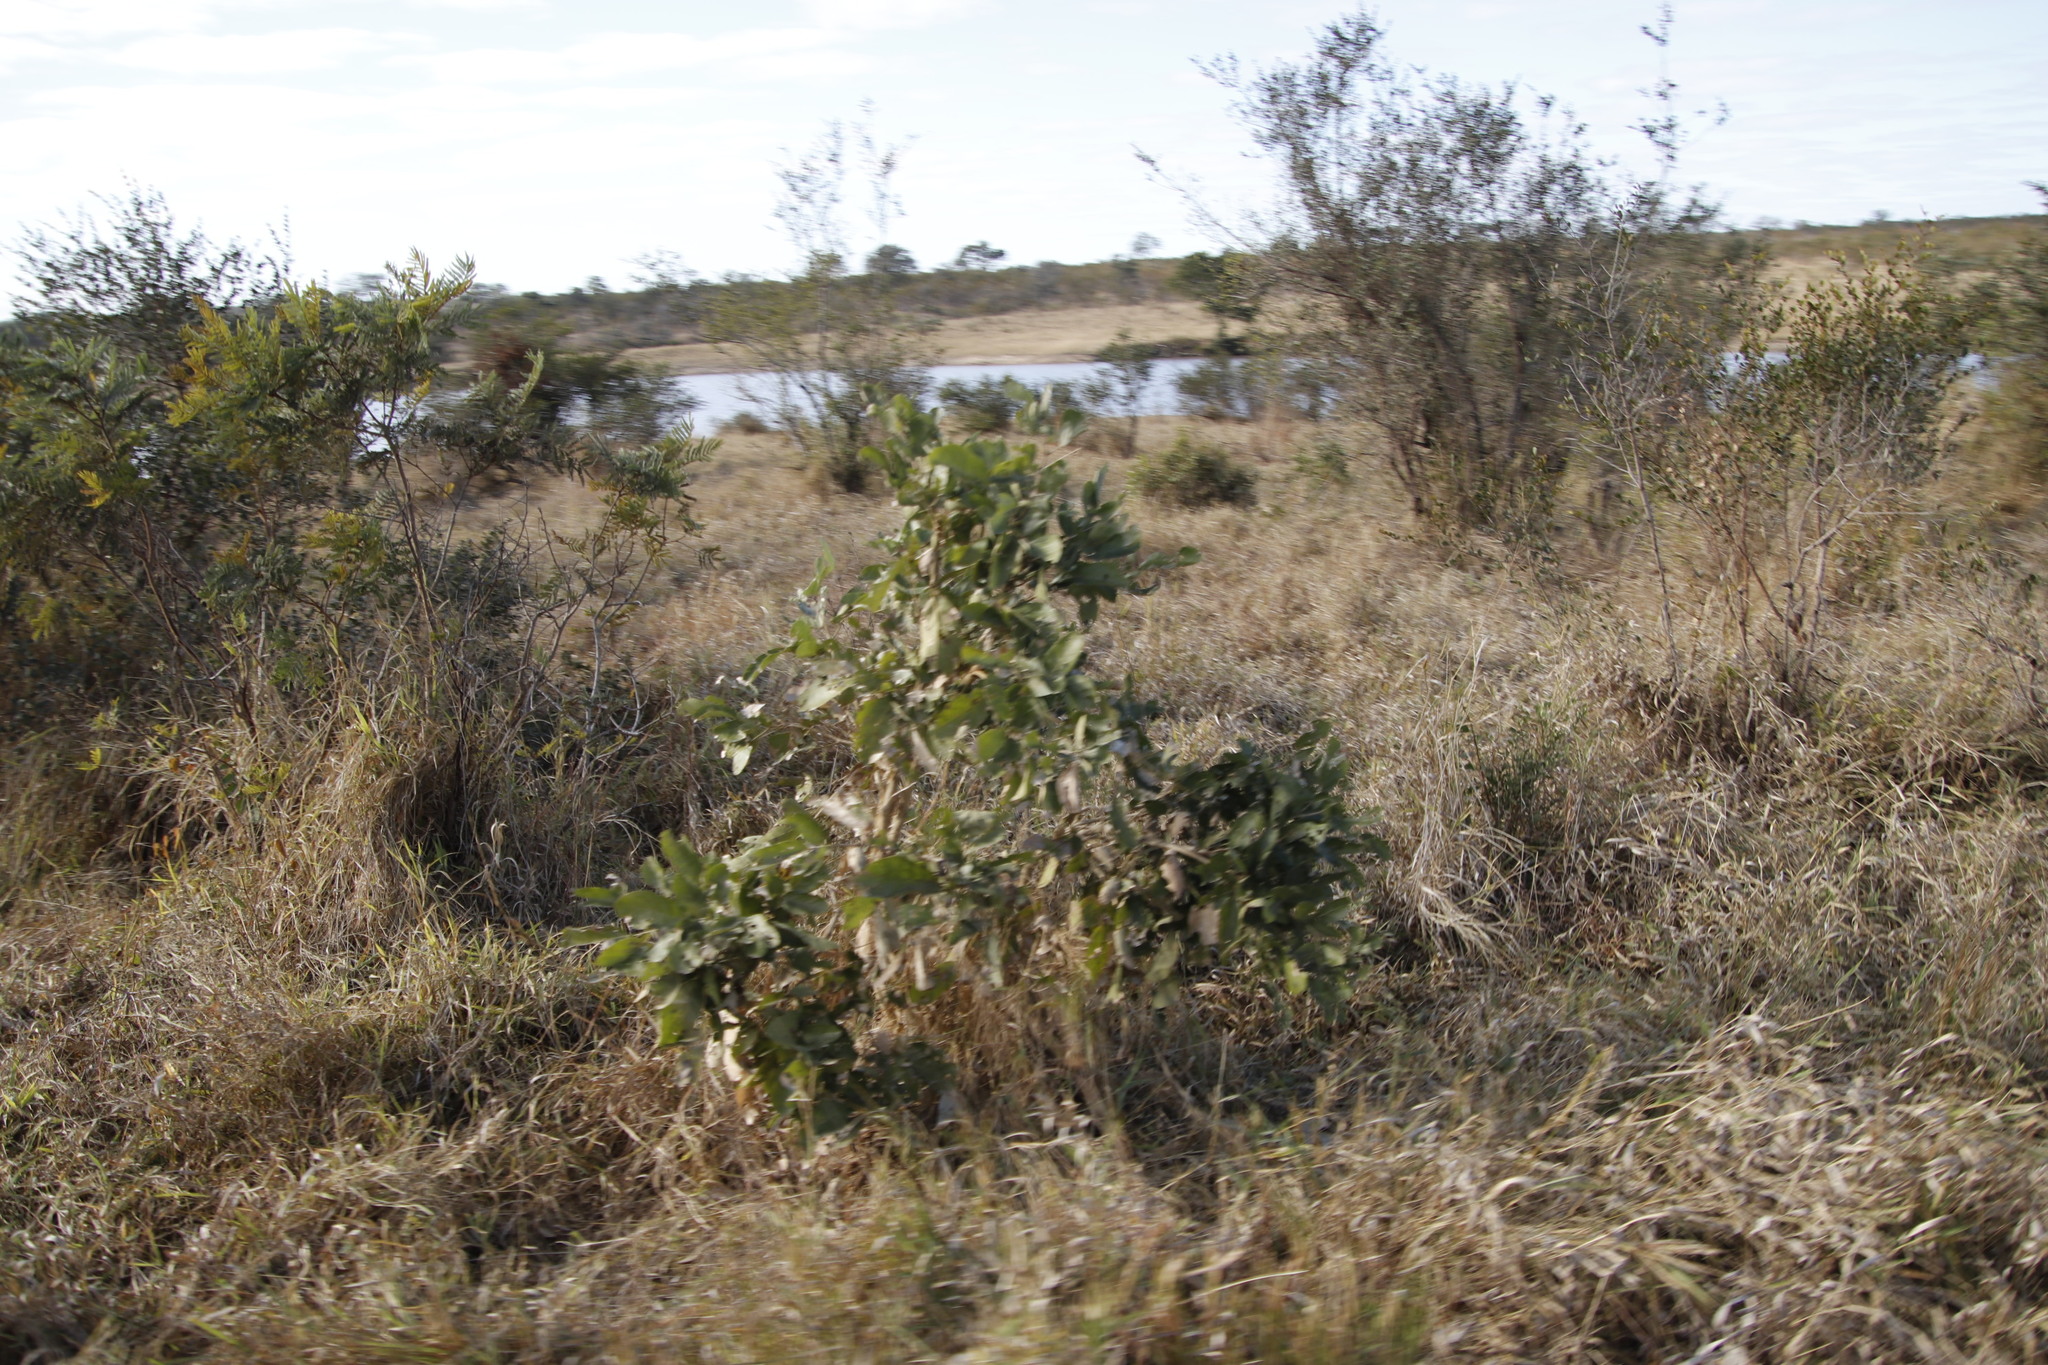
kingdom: Plantae
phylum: Tracheophyta
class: Magnoliopsida
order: Fabales
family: Fabaceae
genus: Philenoptera
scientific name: Philenoptera violacea
